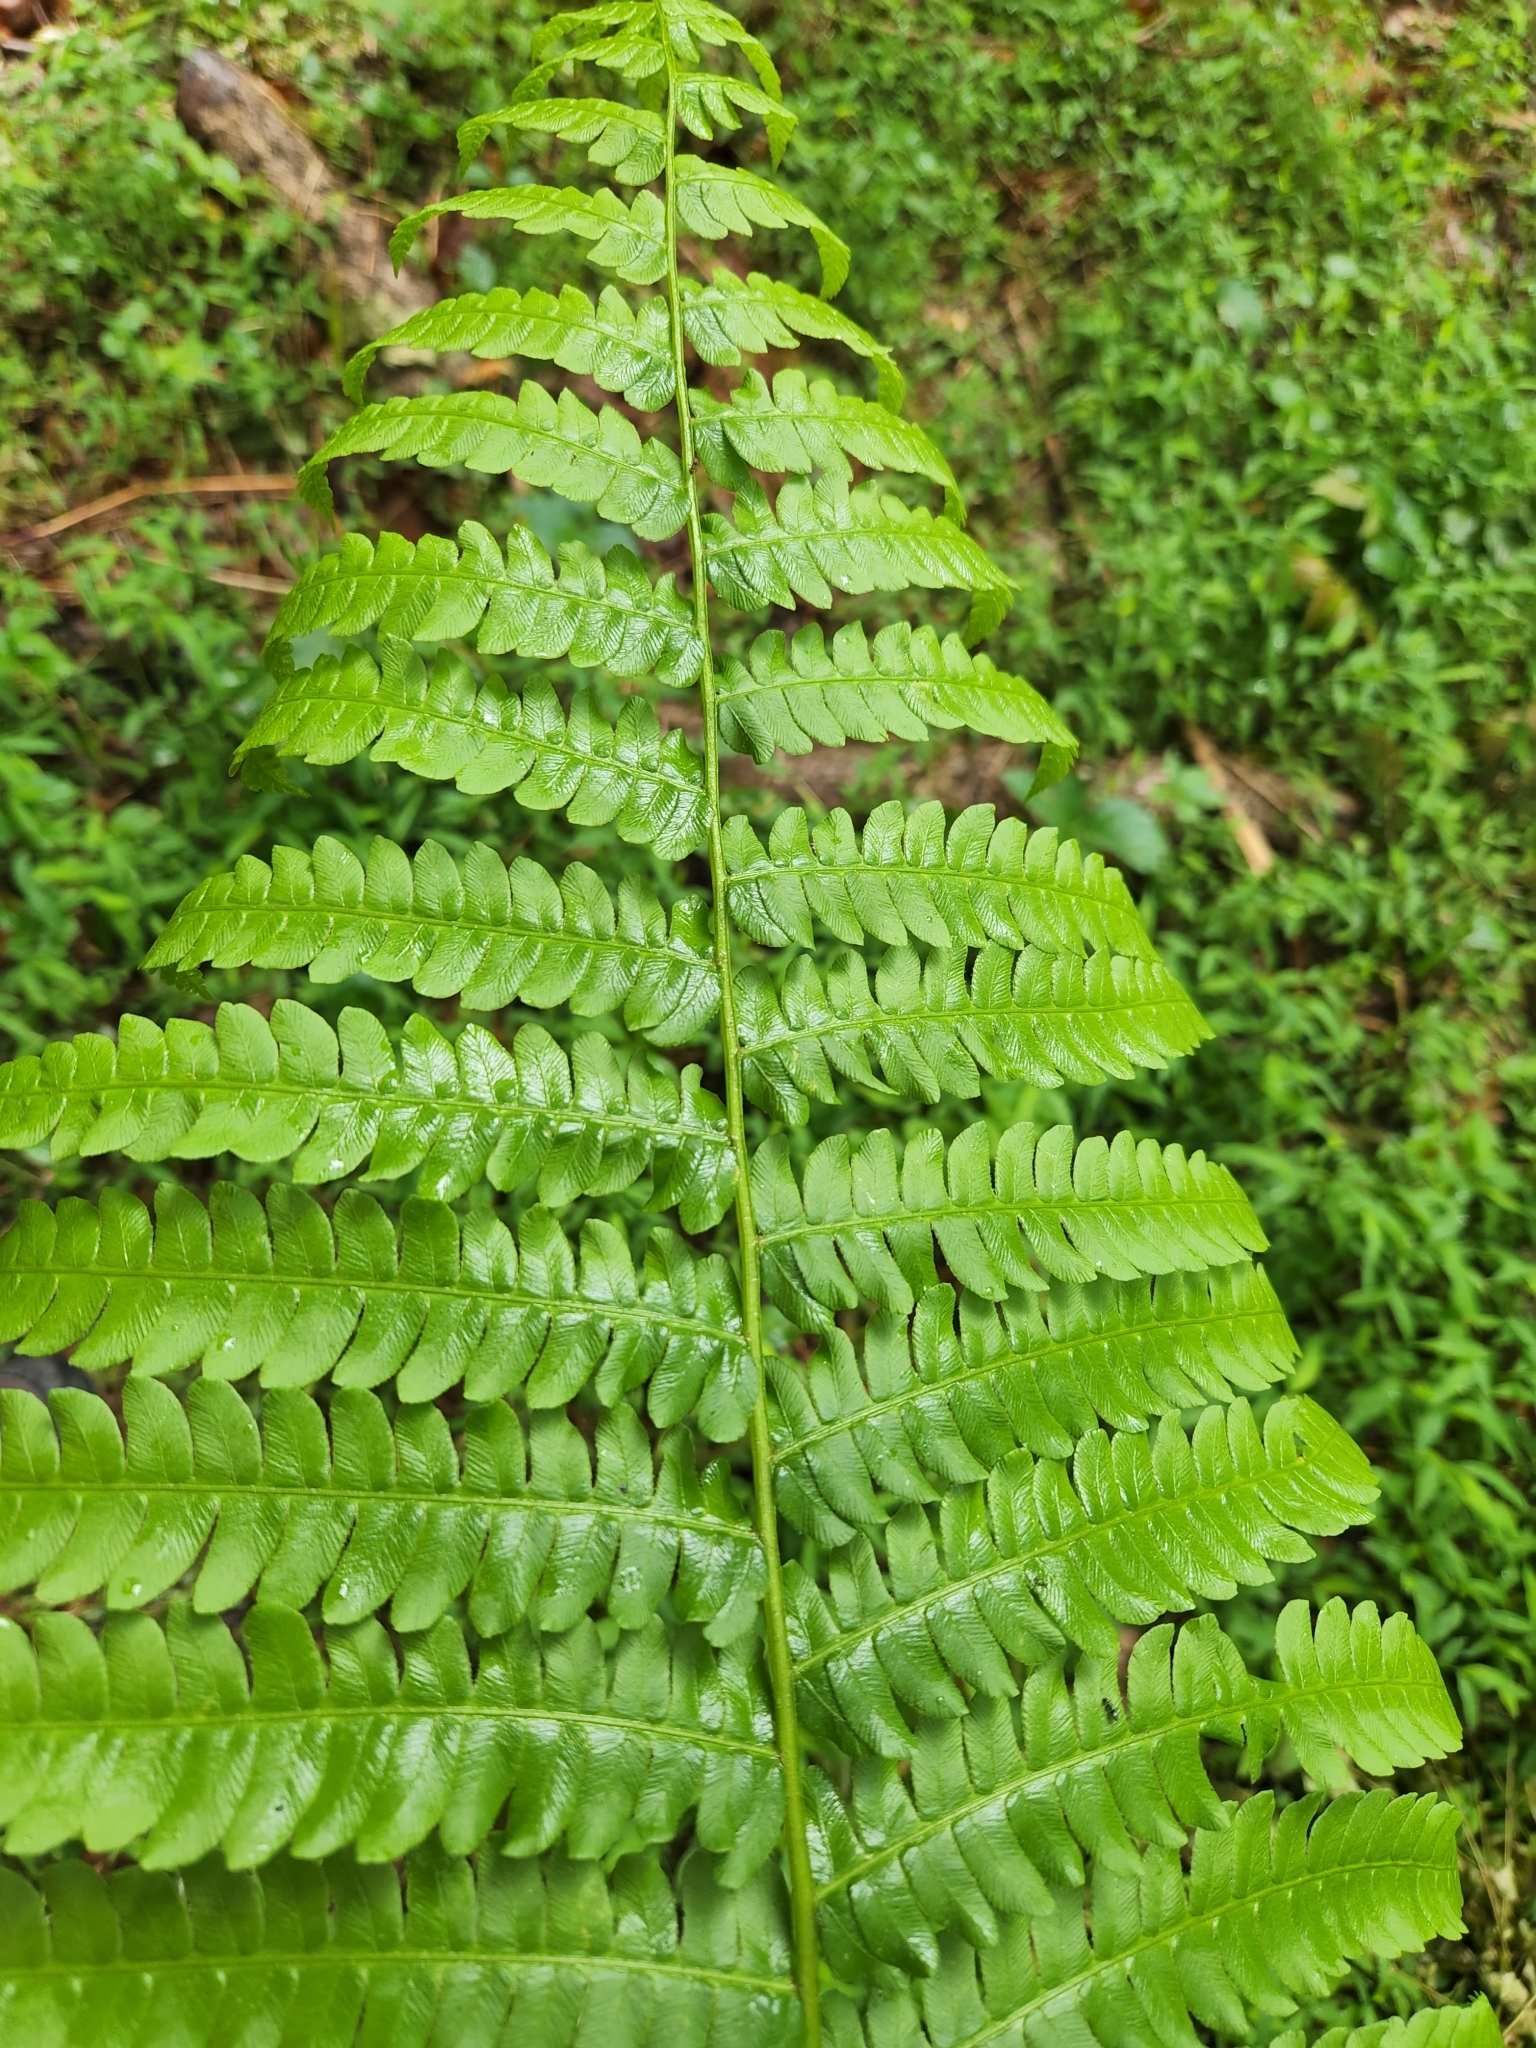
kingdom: Plantae
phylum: Tracheophyta
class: Polypodiopsida
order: Osmundales
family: Osmundaceae
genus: Osmundastrum
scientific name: Osmundastrum cinnamomeum
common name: Cinnamon fern
